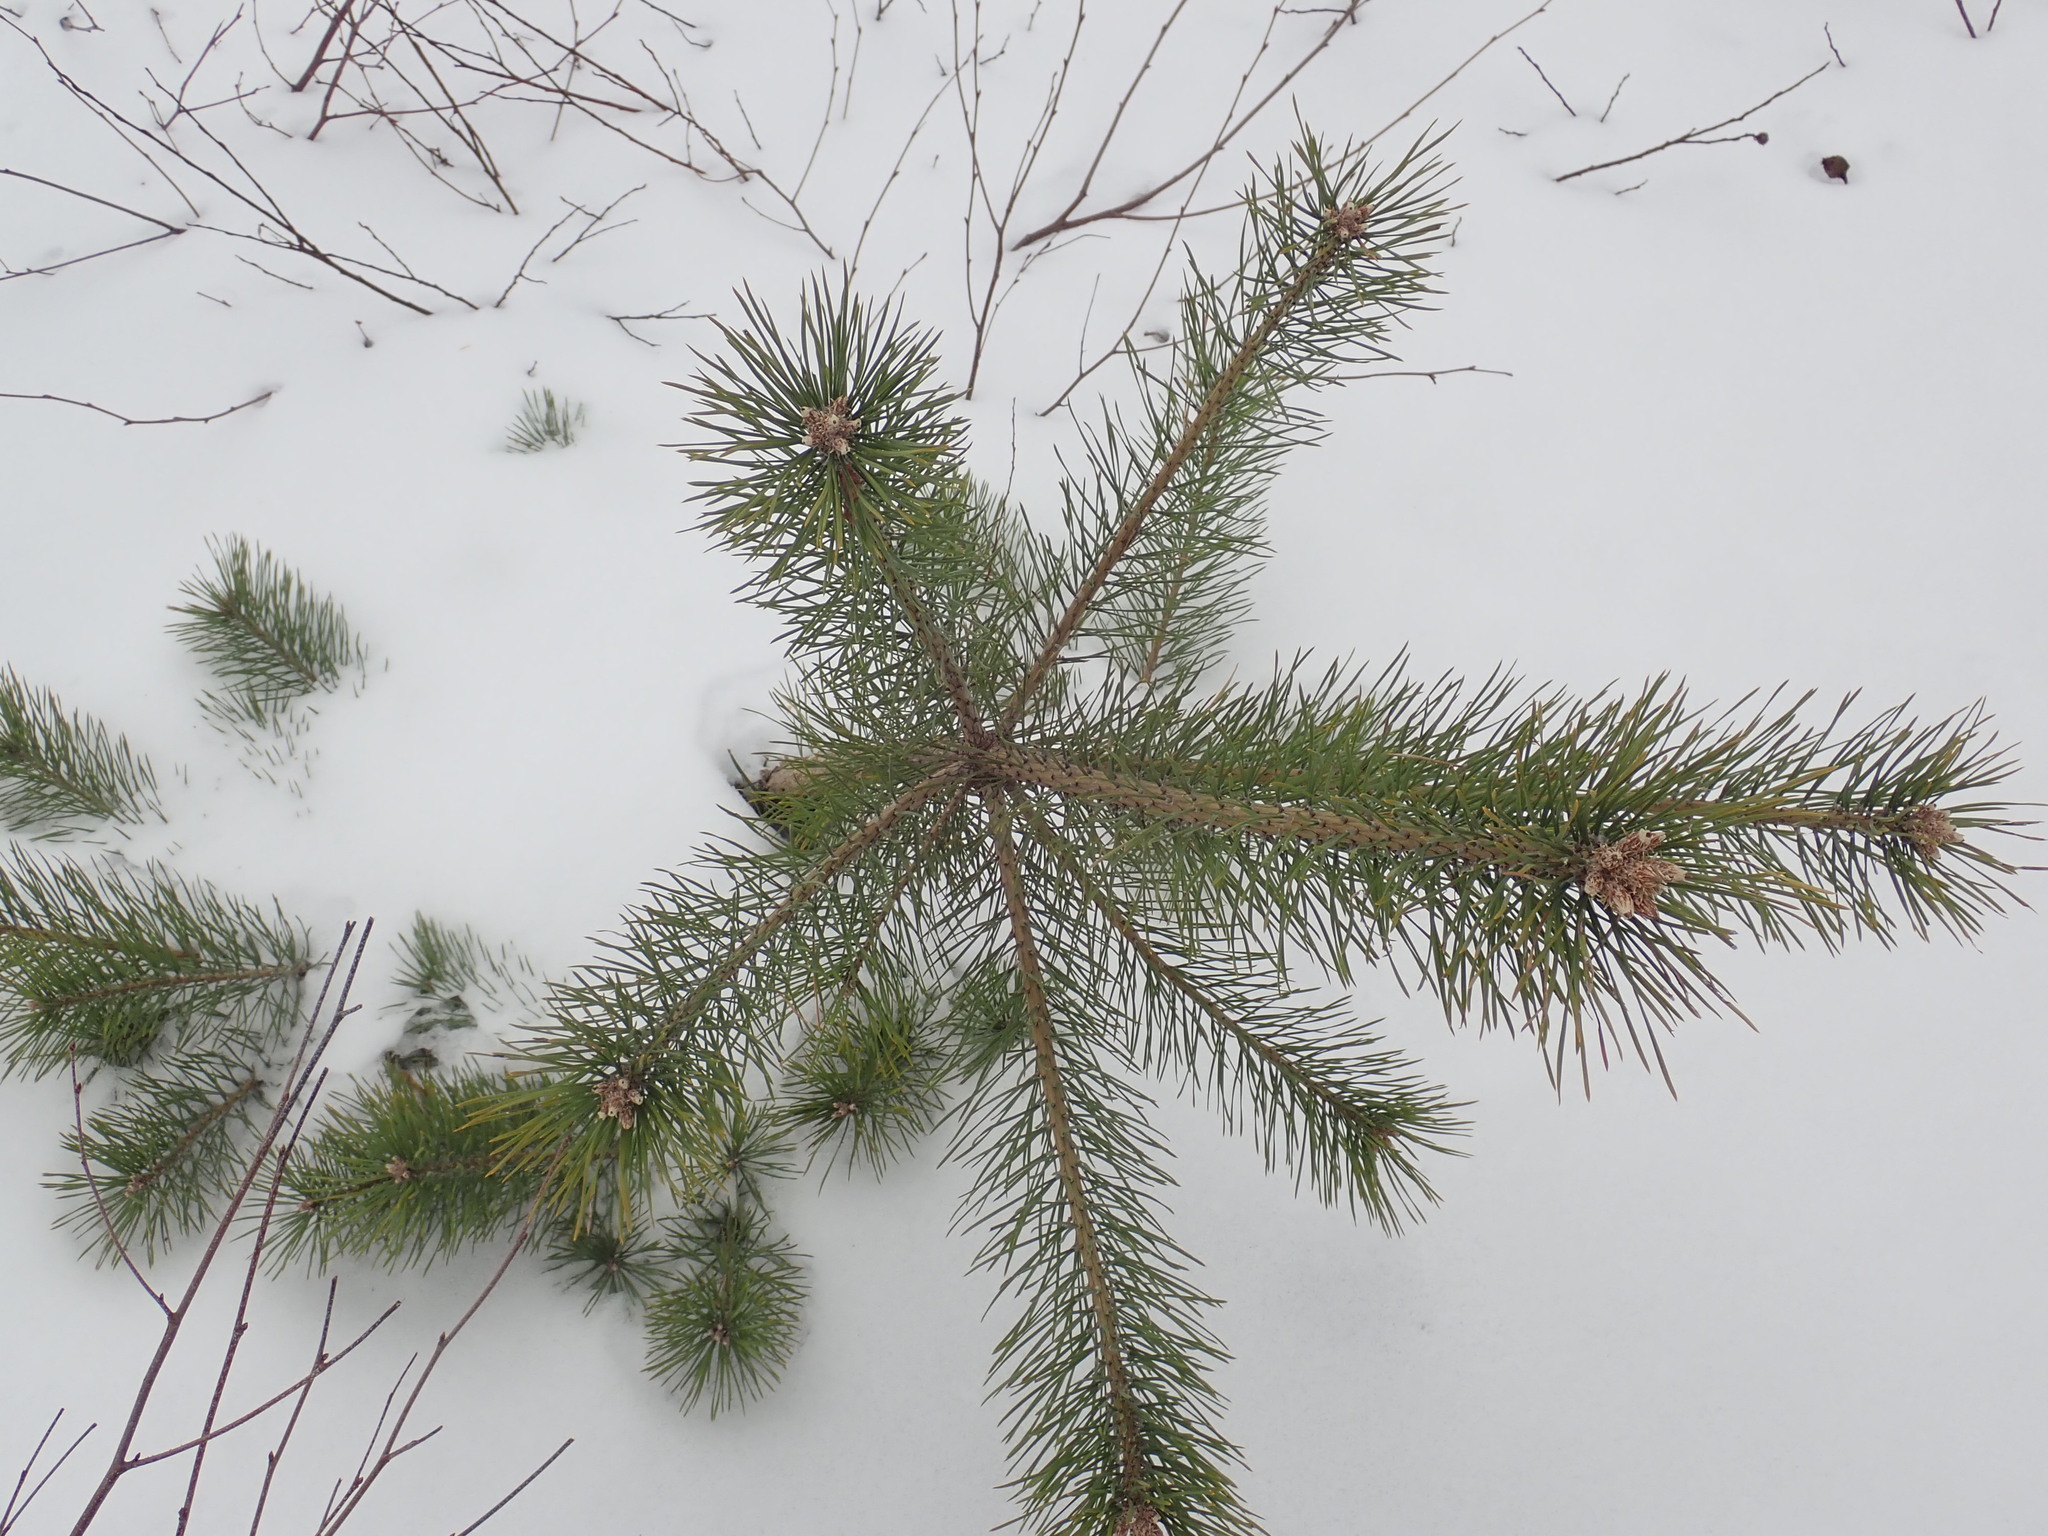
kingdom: Plantae
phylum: Tracheophyta
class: Pinopsida
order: Pinales
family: Pinaceae
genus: Pinus
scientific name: Pinus sylvestris
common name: Scots pine
